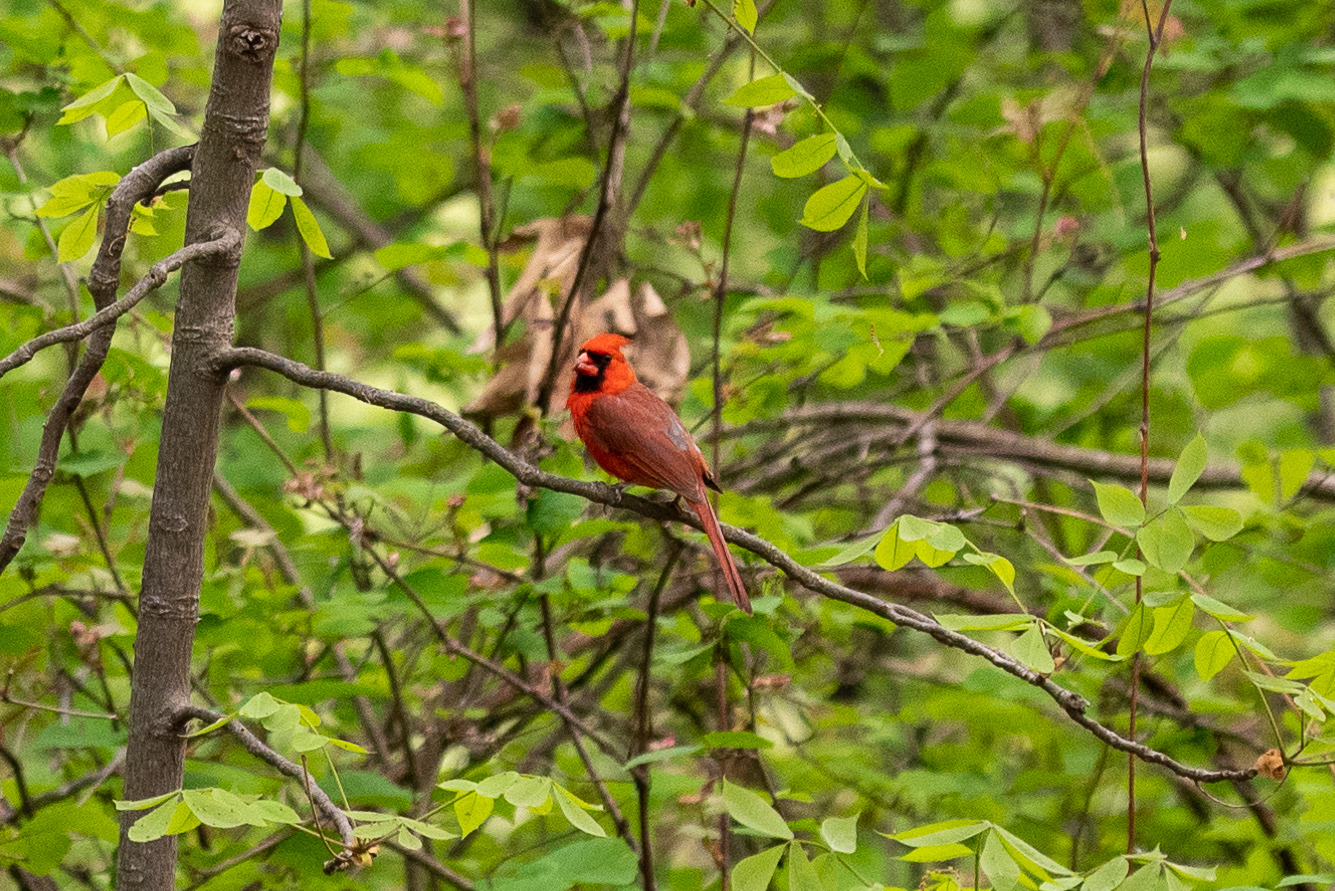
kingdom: Animalia
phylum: Chordata
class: Aves
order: Passeriformes
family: Cardinalidae
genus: Cardinalis
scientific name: Cardinalis cardinalis
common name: Northern cardinal
